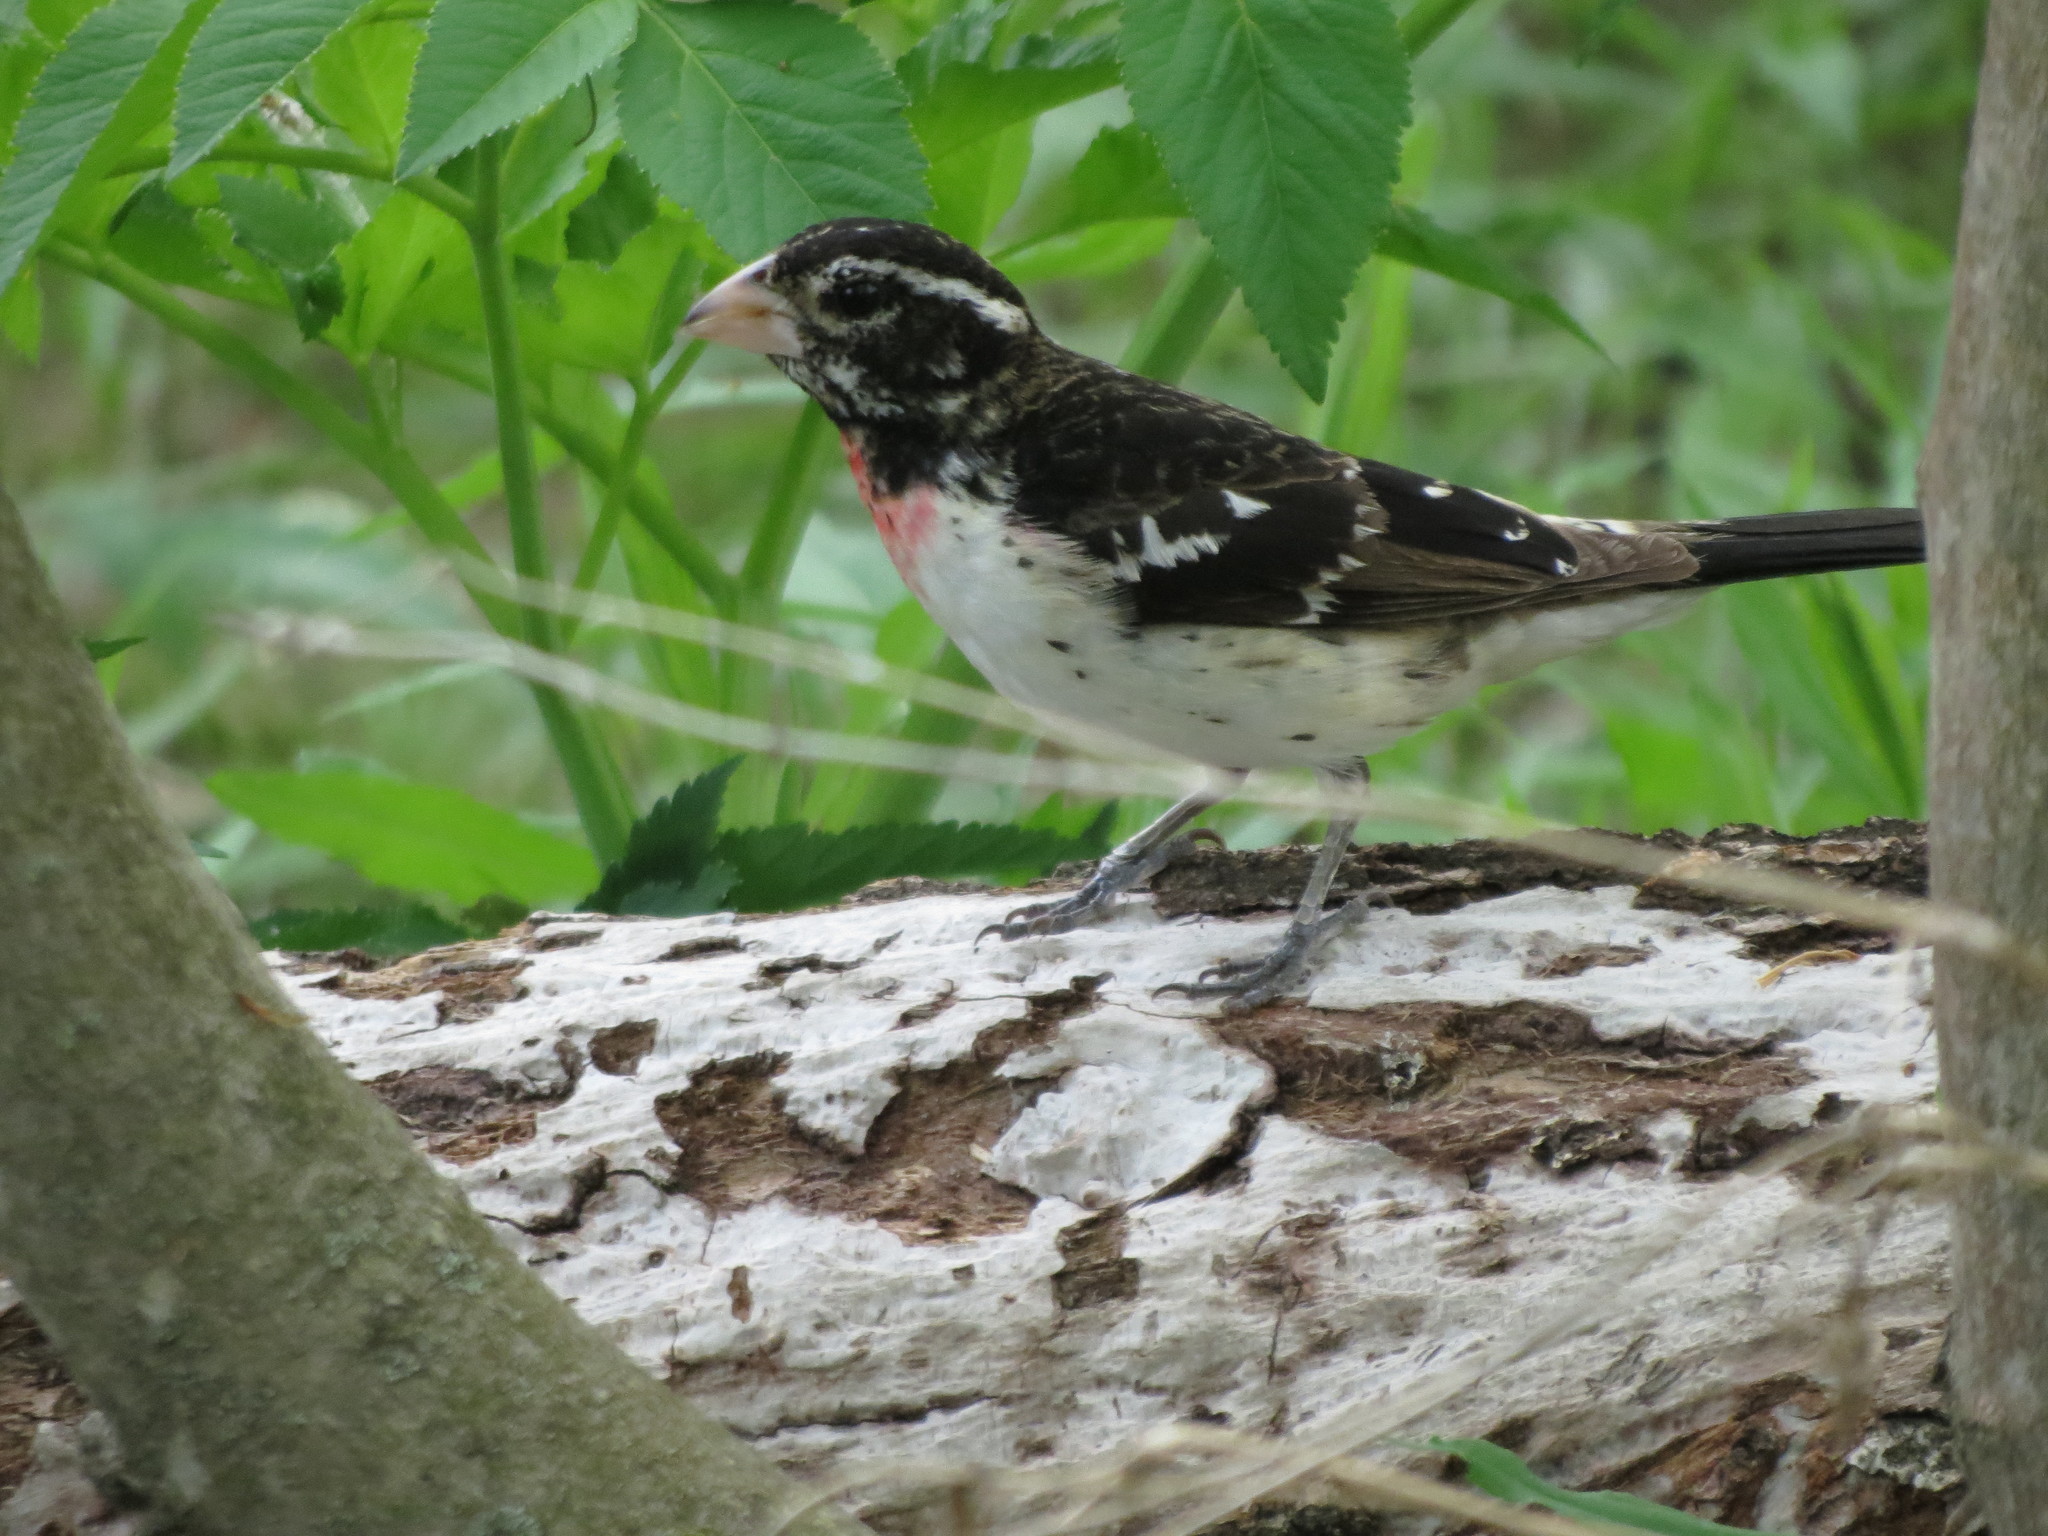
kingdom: Animalia
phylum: Chordata
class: Aves
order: Passeriformes
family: Cardinalidae
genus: Pheucticus
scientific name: Pheucticus ludovicianus
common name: Rose-breasted grosbeak
